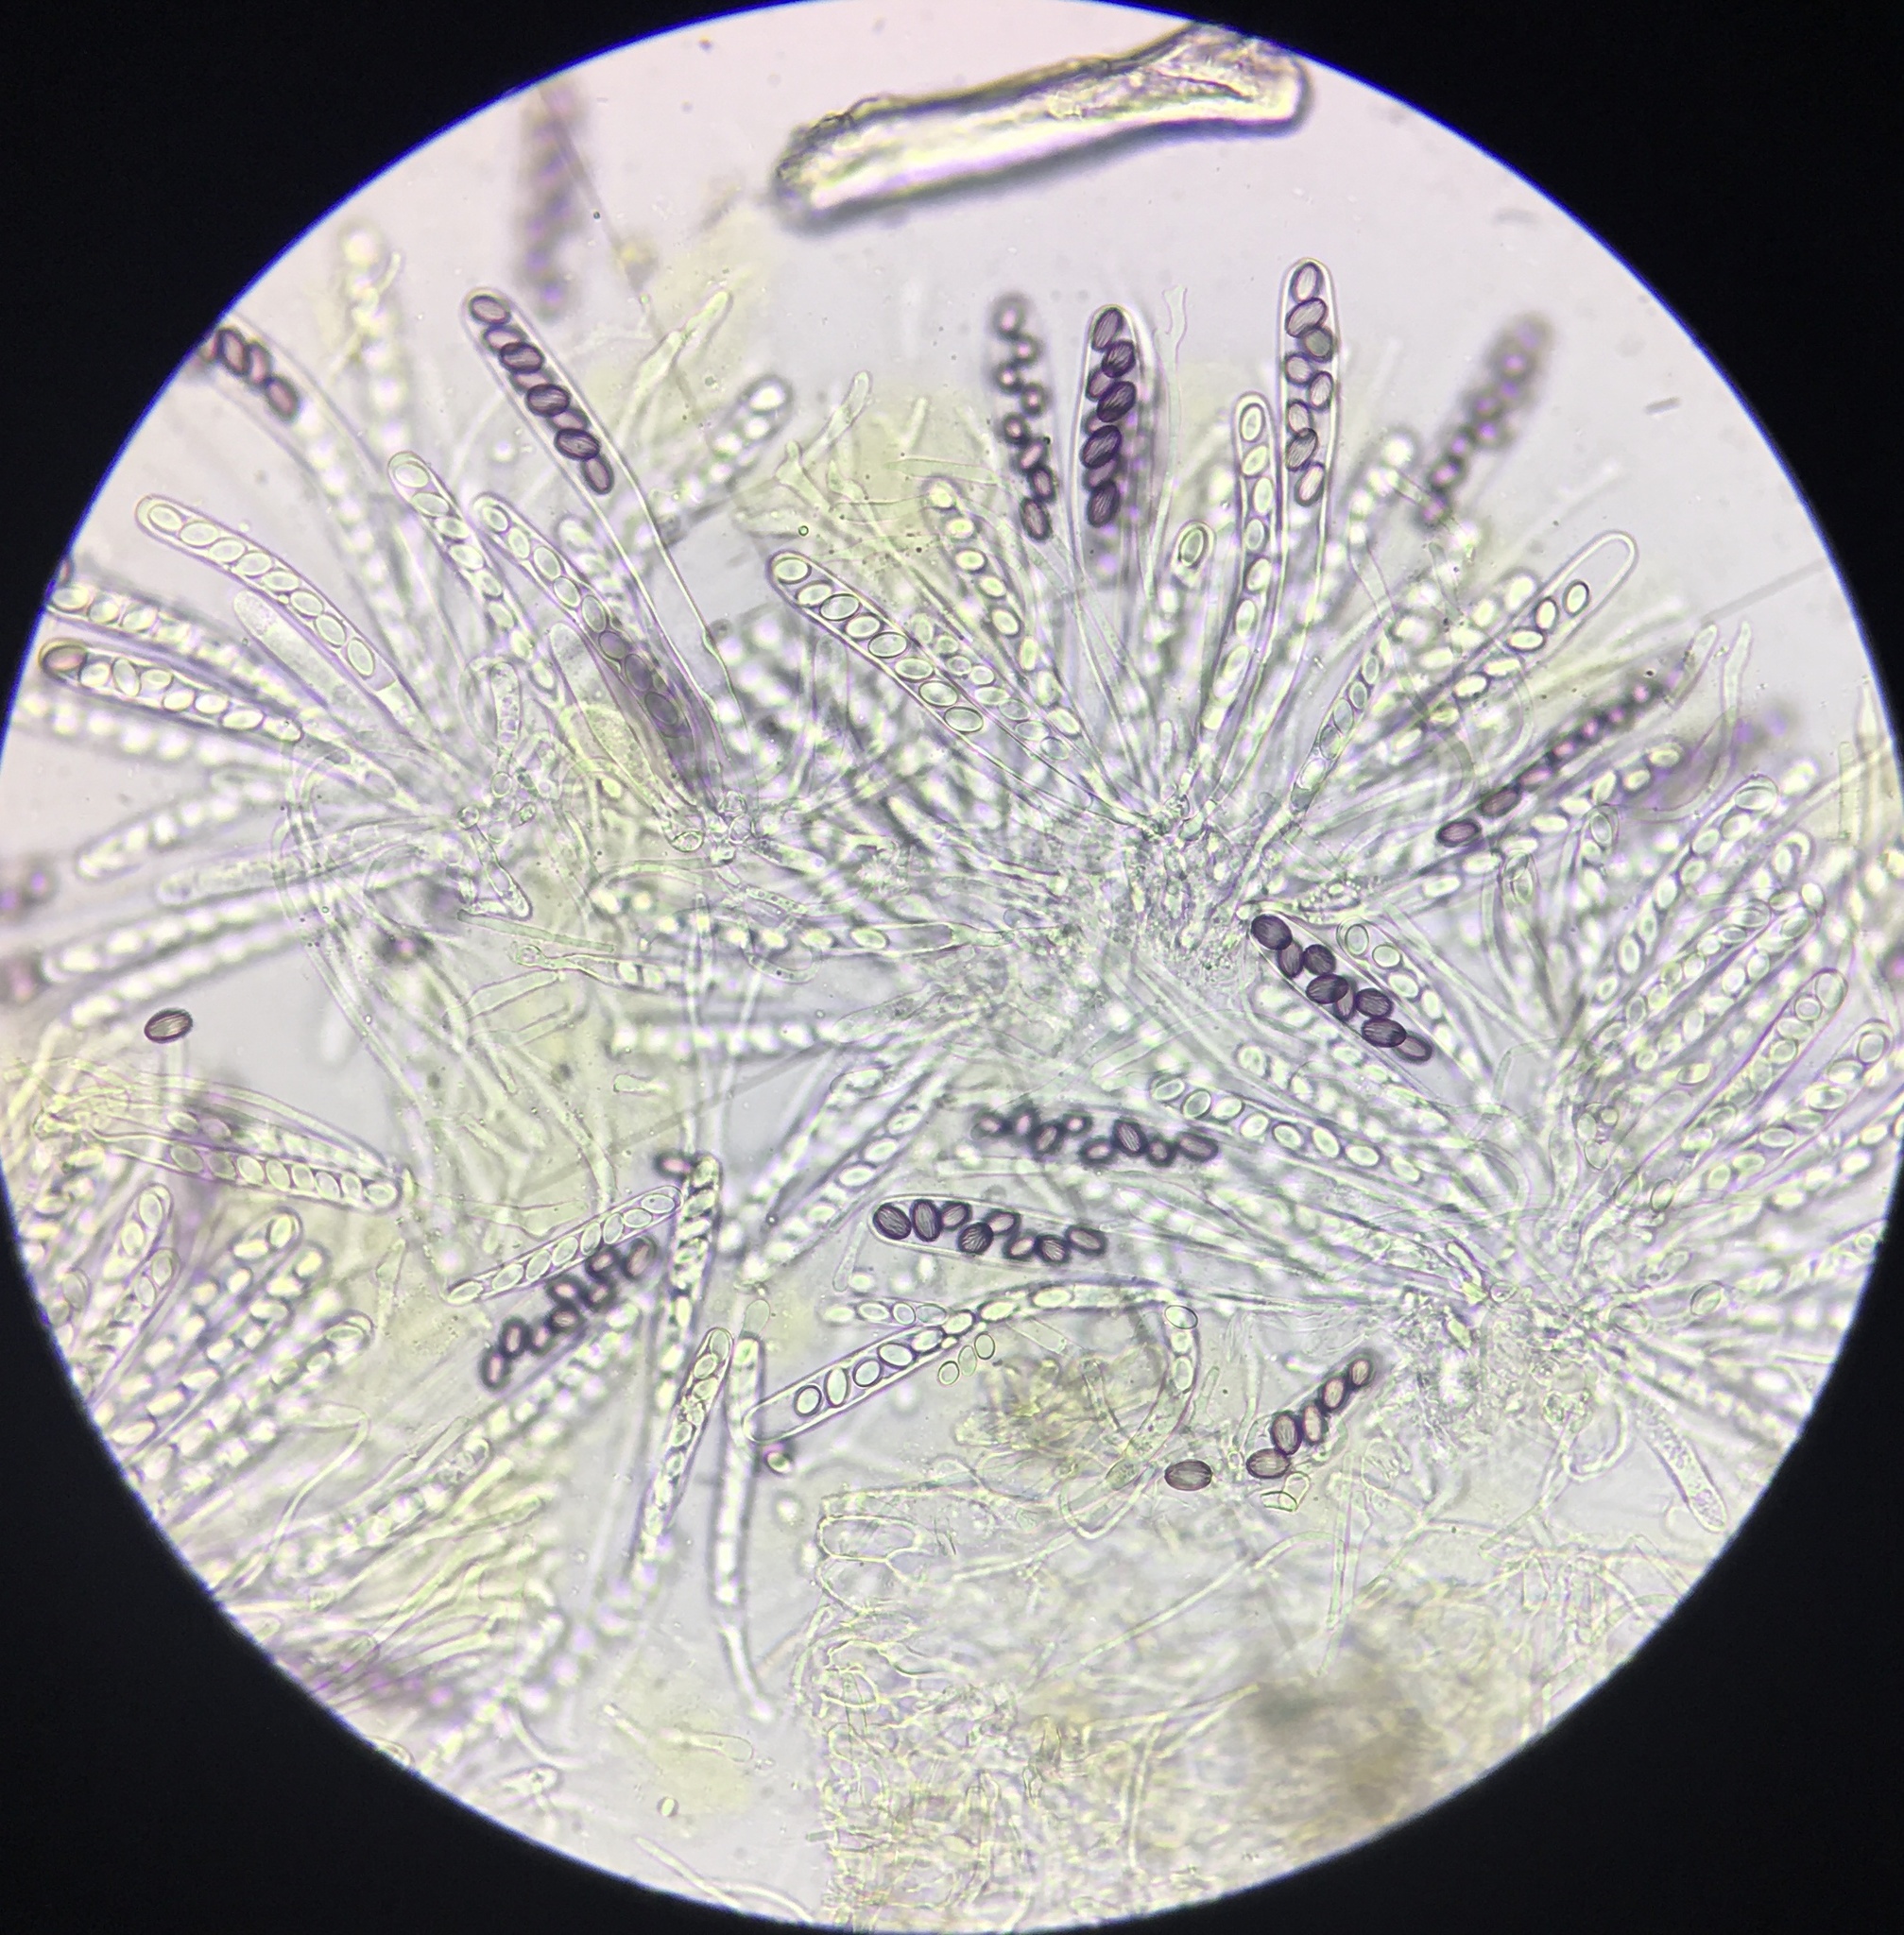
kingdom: Fungi
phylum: Ascomycota
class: Pezizomycetes
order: Pezizales
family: Ascobolaceae
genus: Ascobolus
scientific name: Ascobolus crenulatus
